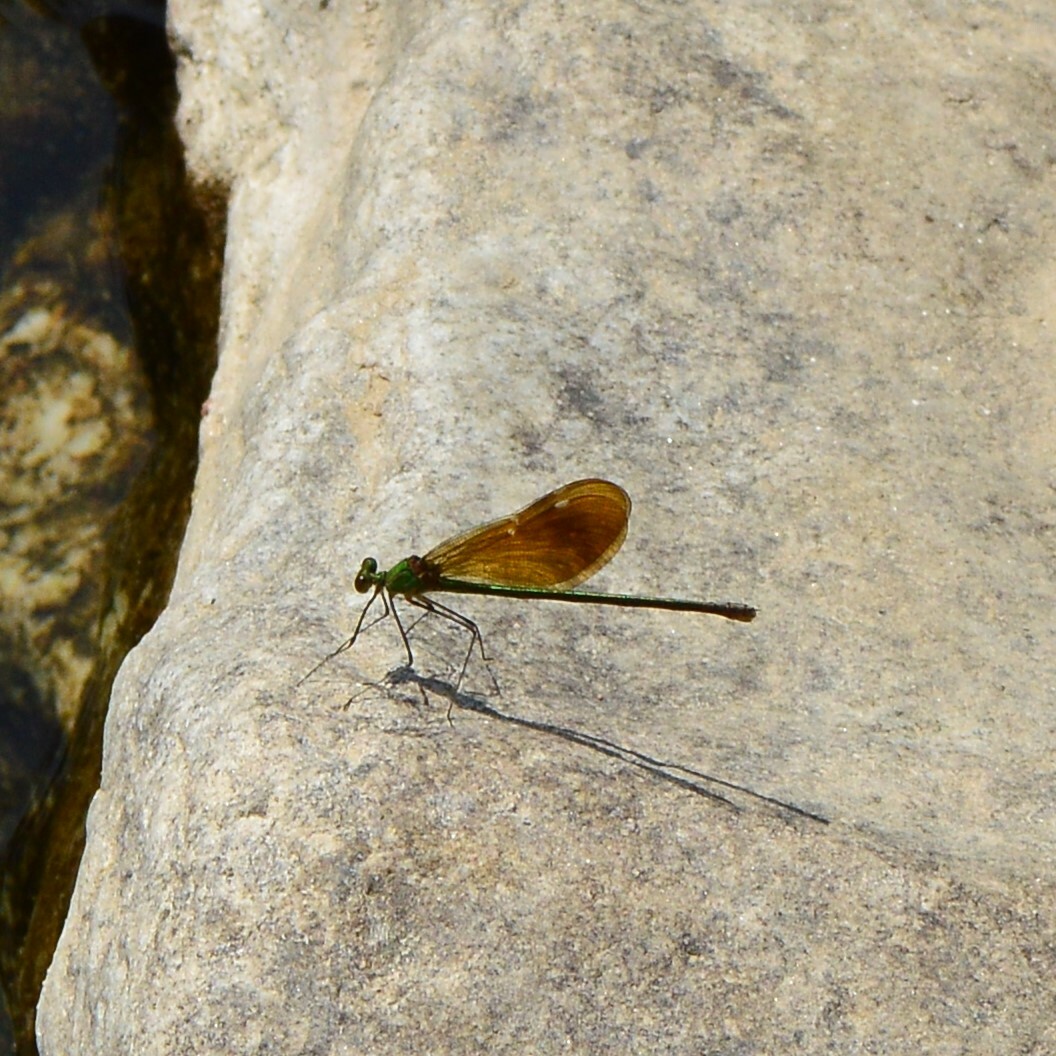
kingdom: Animalia
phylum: Arthropoda
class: Insecta
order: Odonata
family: Calopterygidae
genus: Neurobasis
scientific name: Neurobasis chinensis
